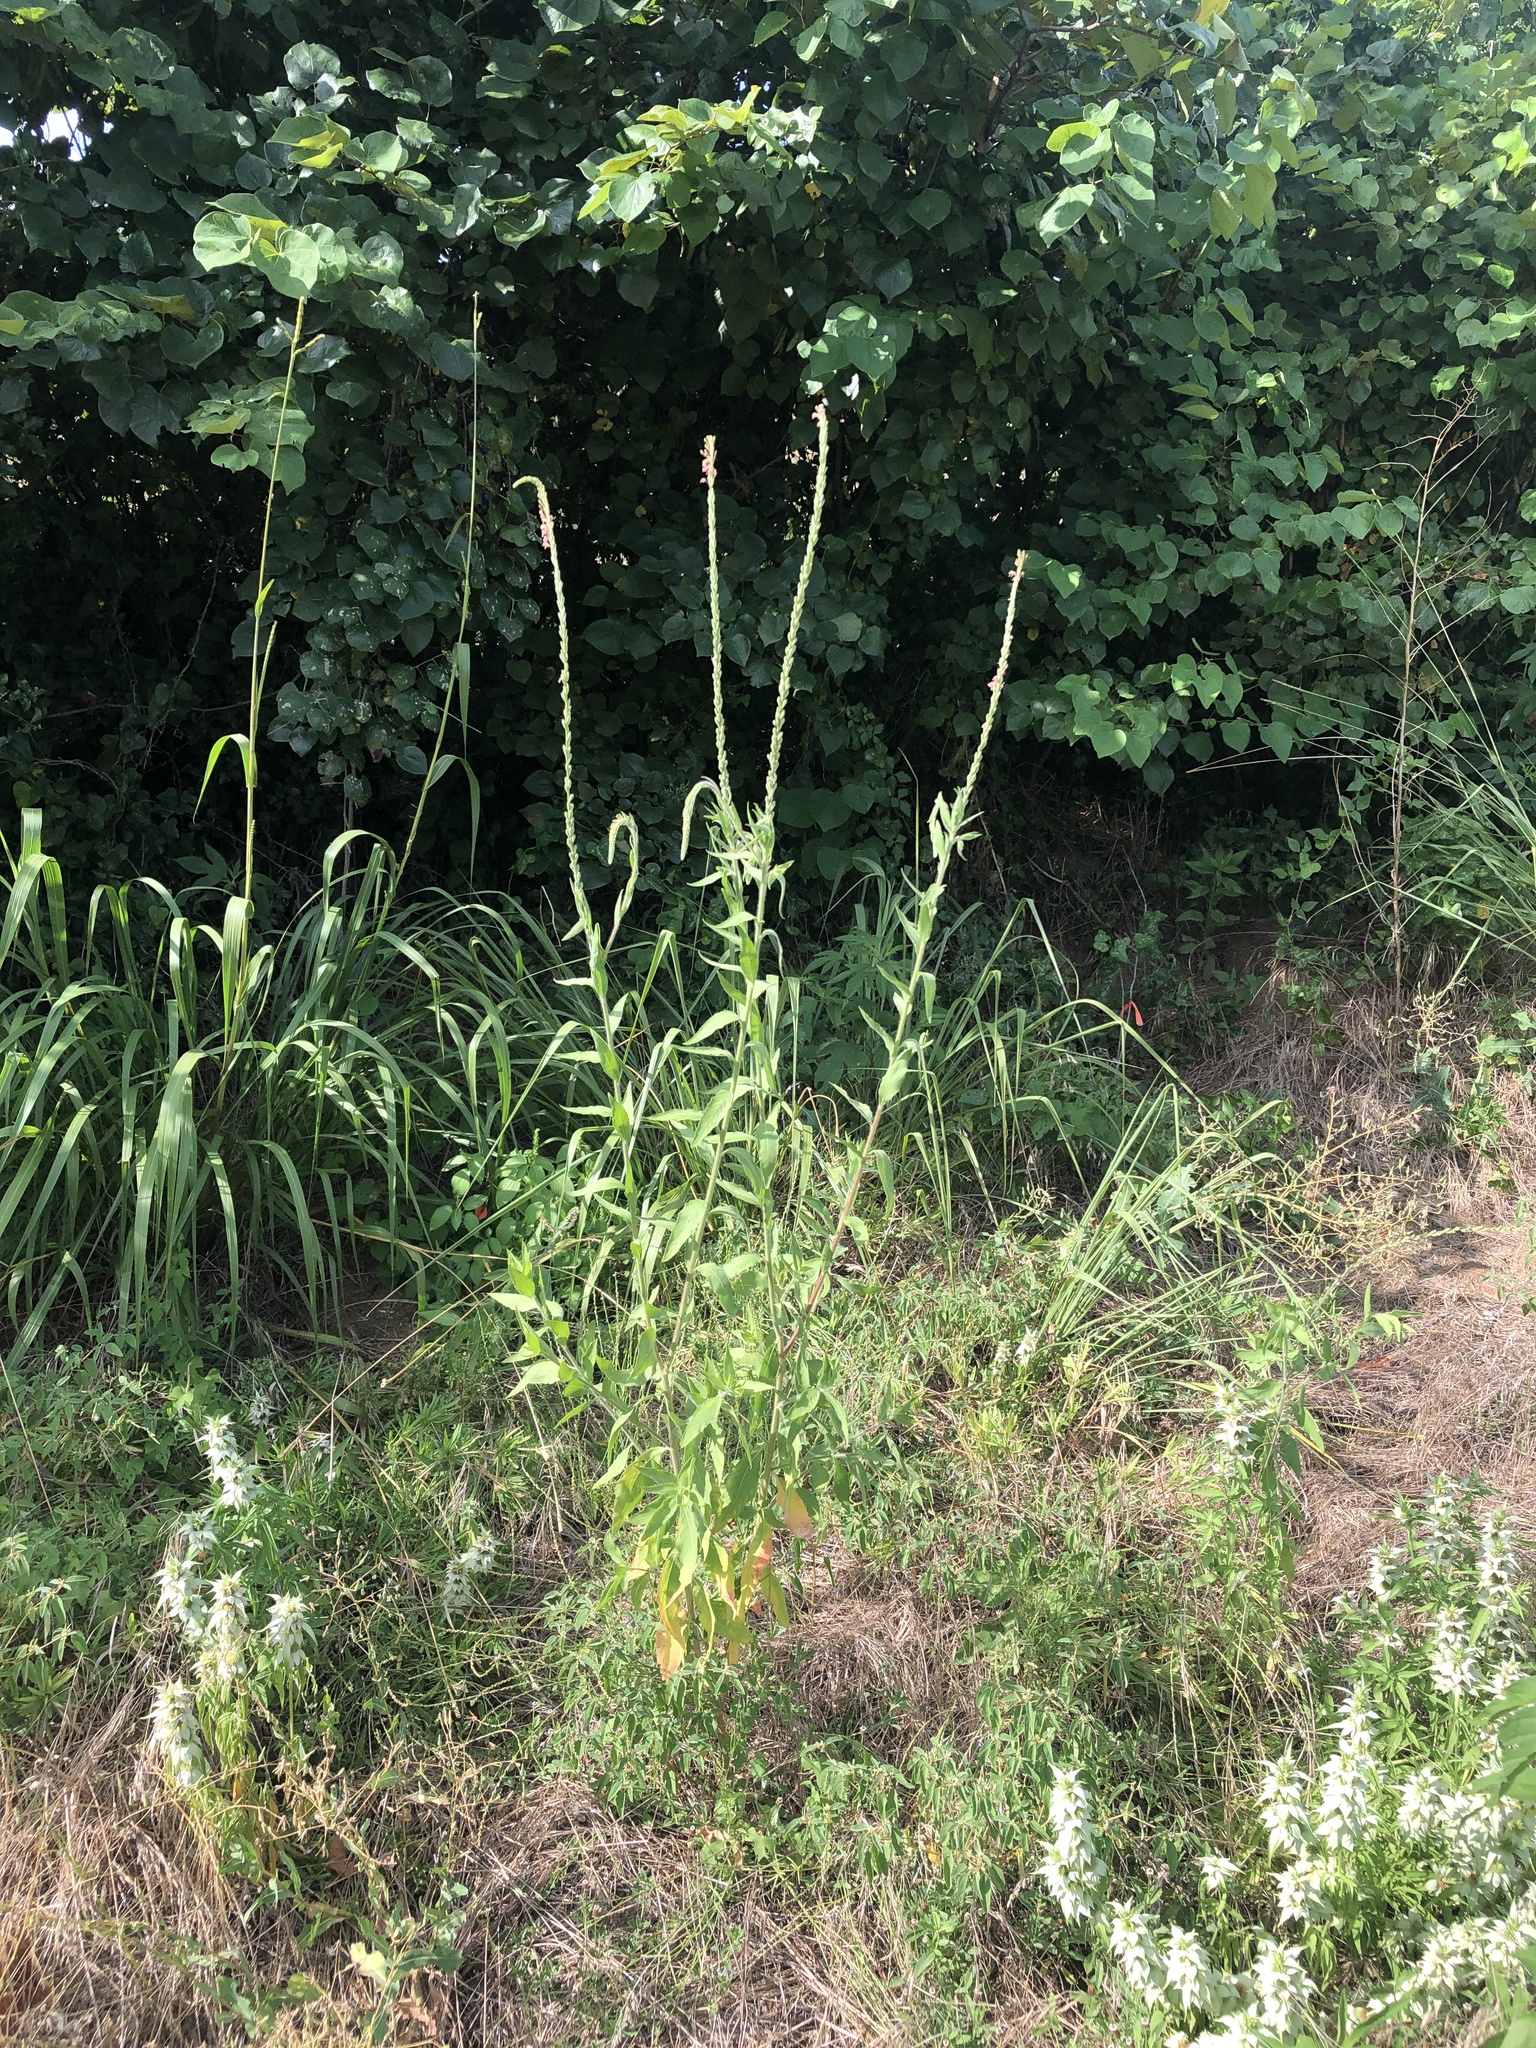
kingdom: Plantae
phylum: Tracheophyta
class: Magnoliopsida
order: Myrtales
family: Onagraceae
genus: Oenothera
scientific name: Oenothera curtiflora
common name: Velvetweed
